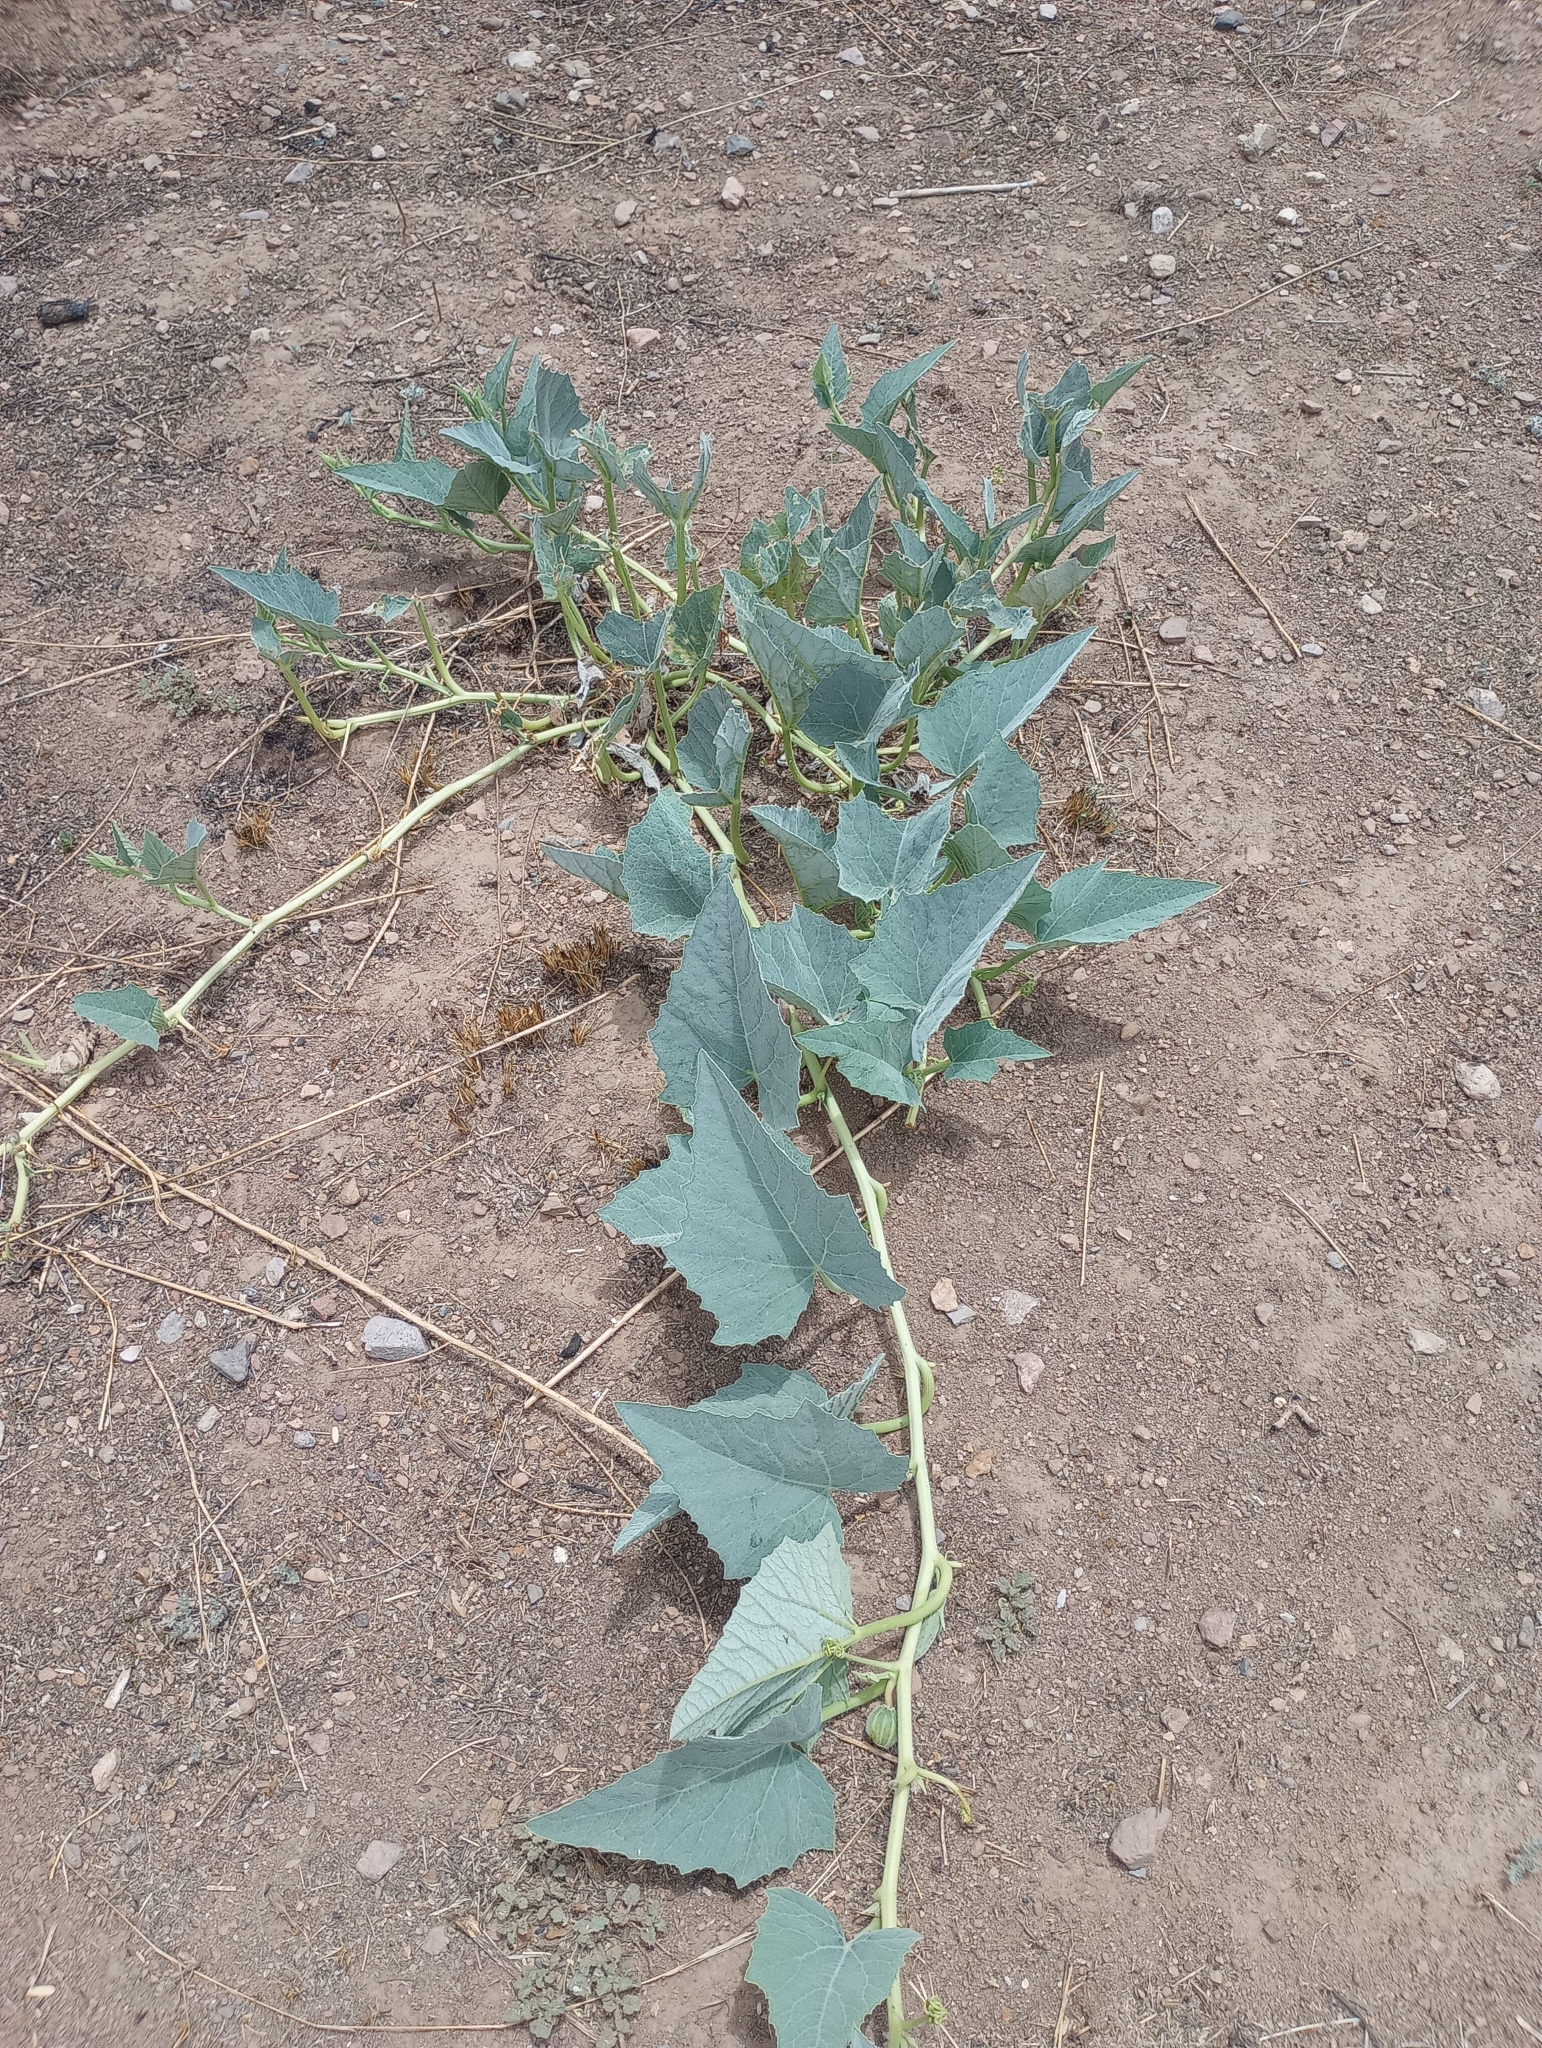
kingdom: Plantae
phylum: Tracheophyta
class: Magnoliopsida
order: Cucurbitales
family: Cucurbitaceae
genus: Cucurbita
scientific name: Cucurbita foetidissima
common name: Buffalo gourd
